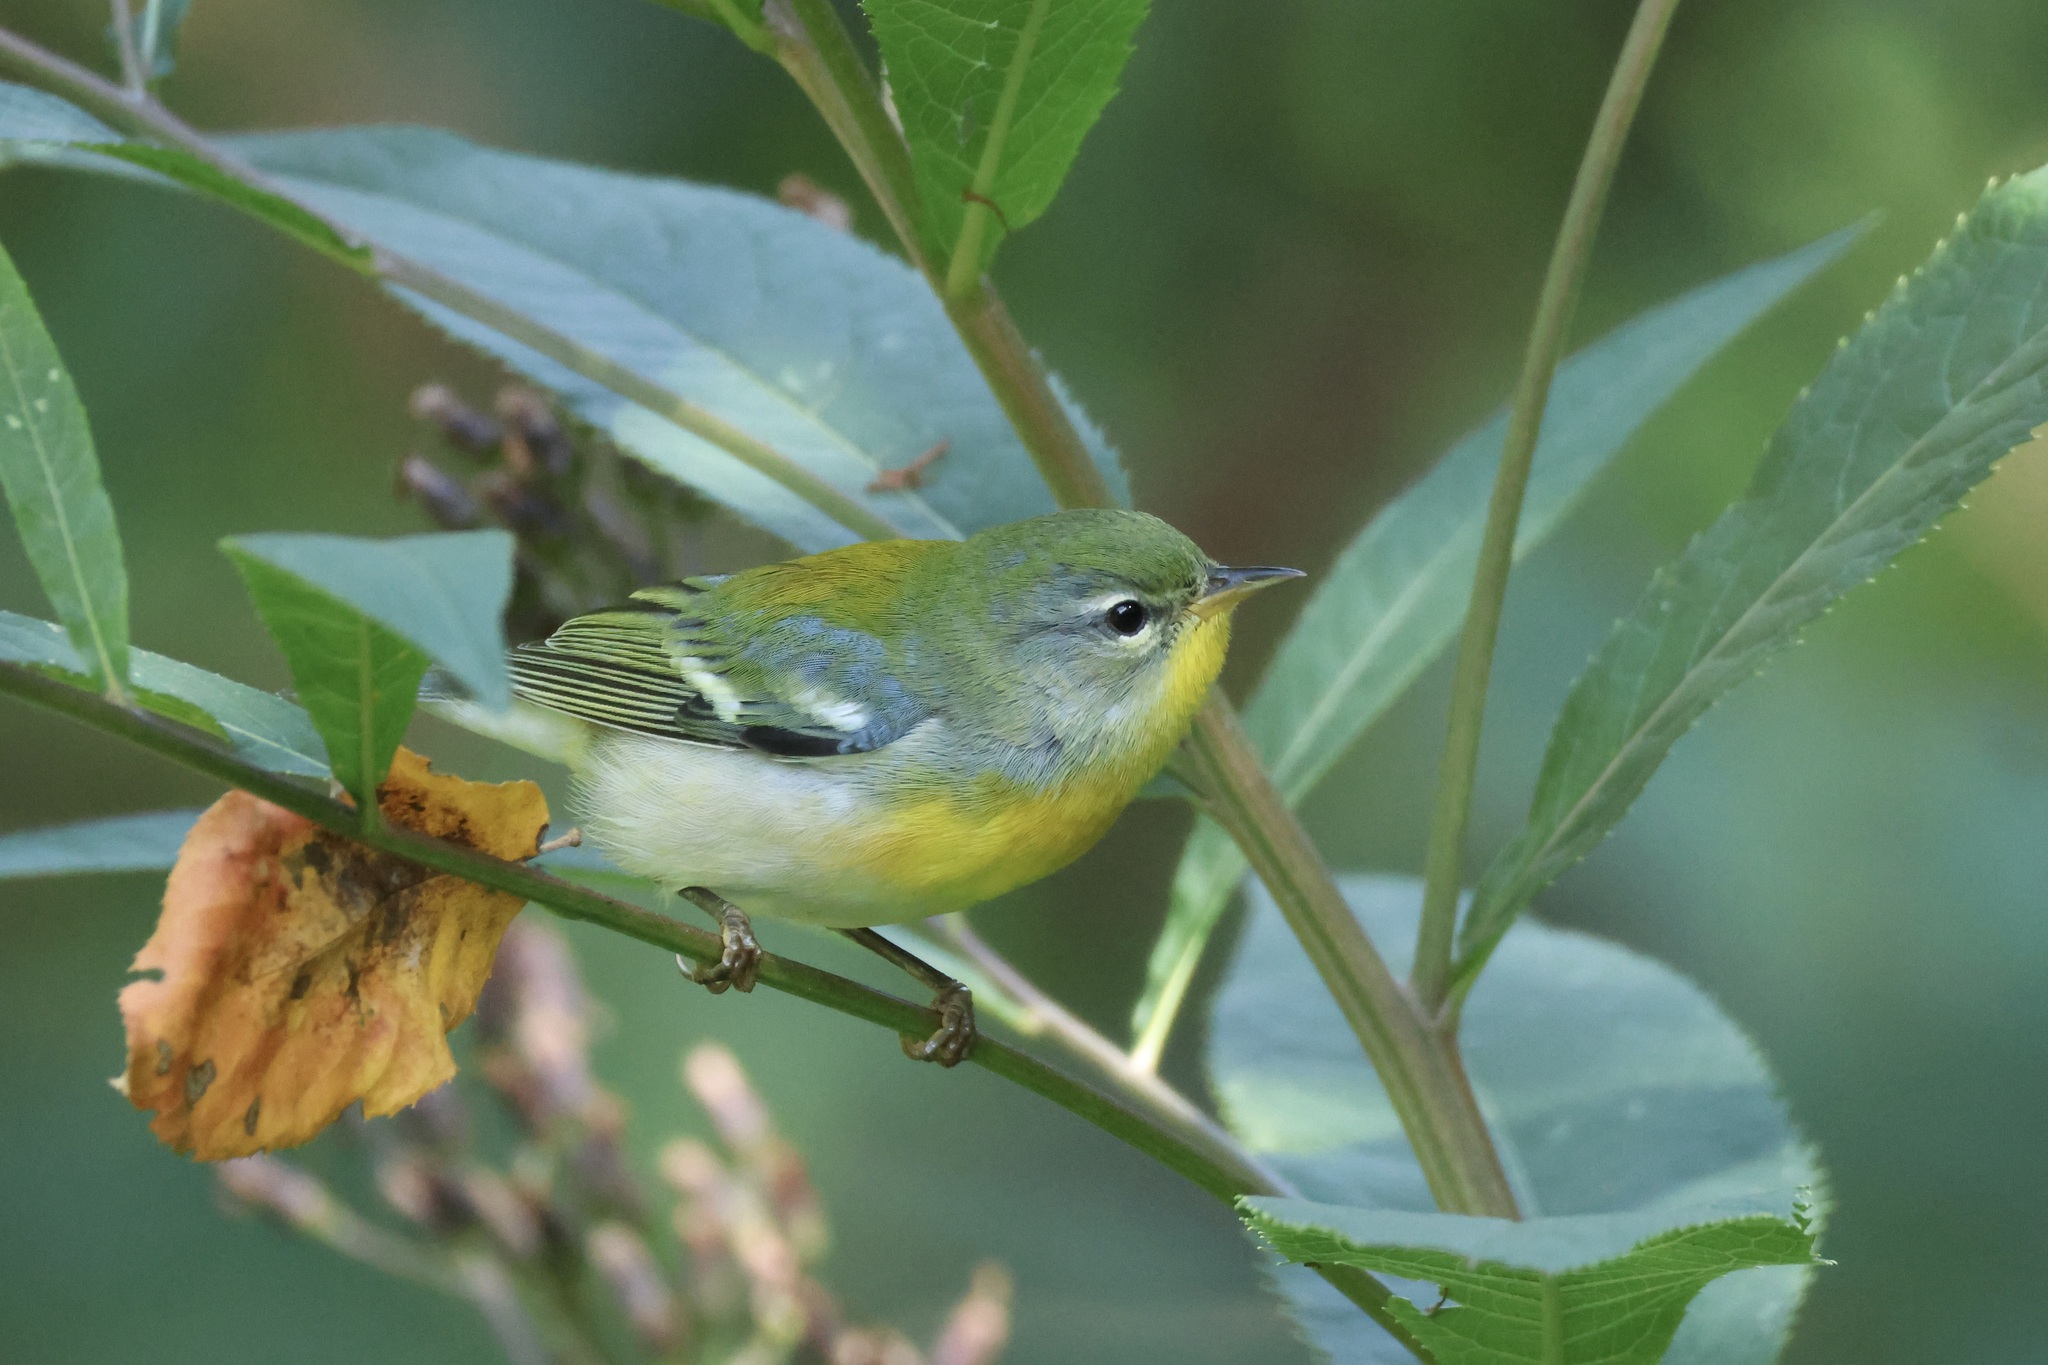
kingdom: Animalia
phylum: Chordata
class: Aves
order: Passeriformes
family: Parulidae
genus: Setophaga
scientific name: Setophaga americana
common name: Northern parula
